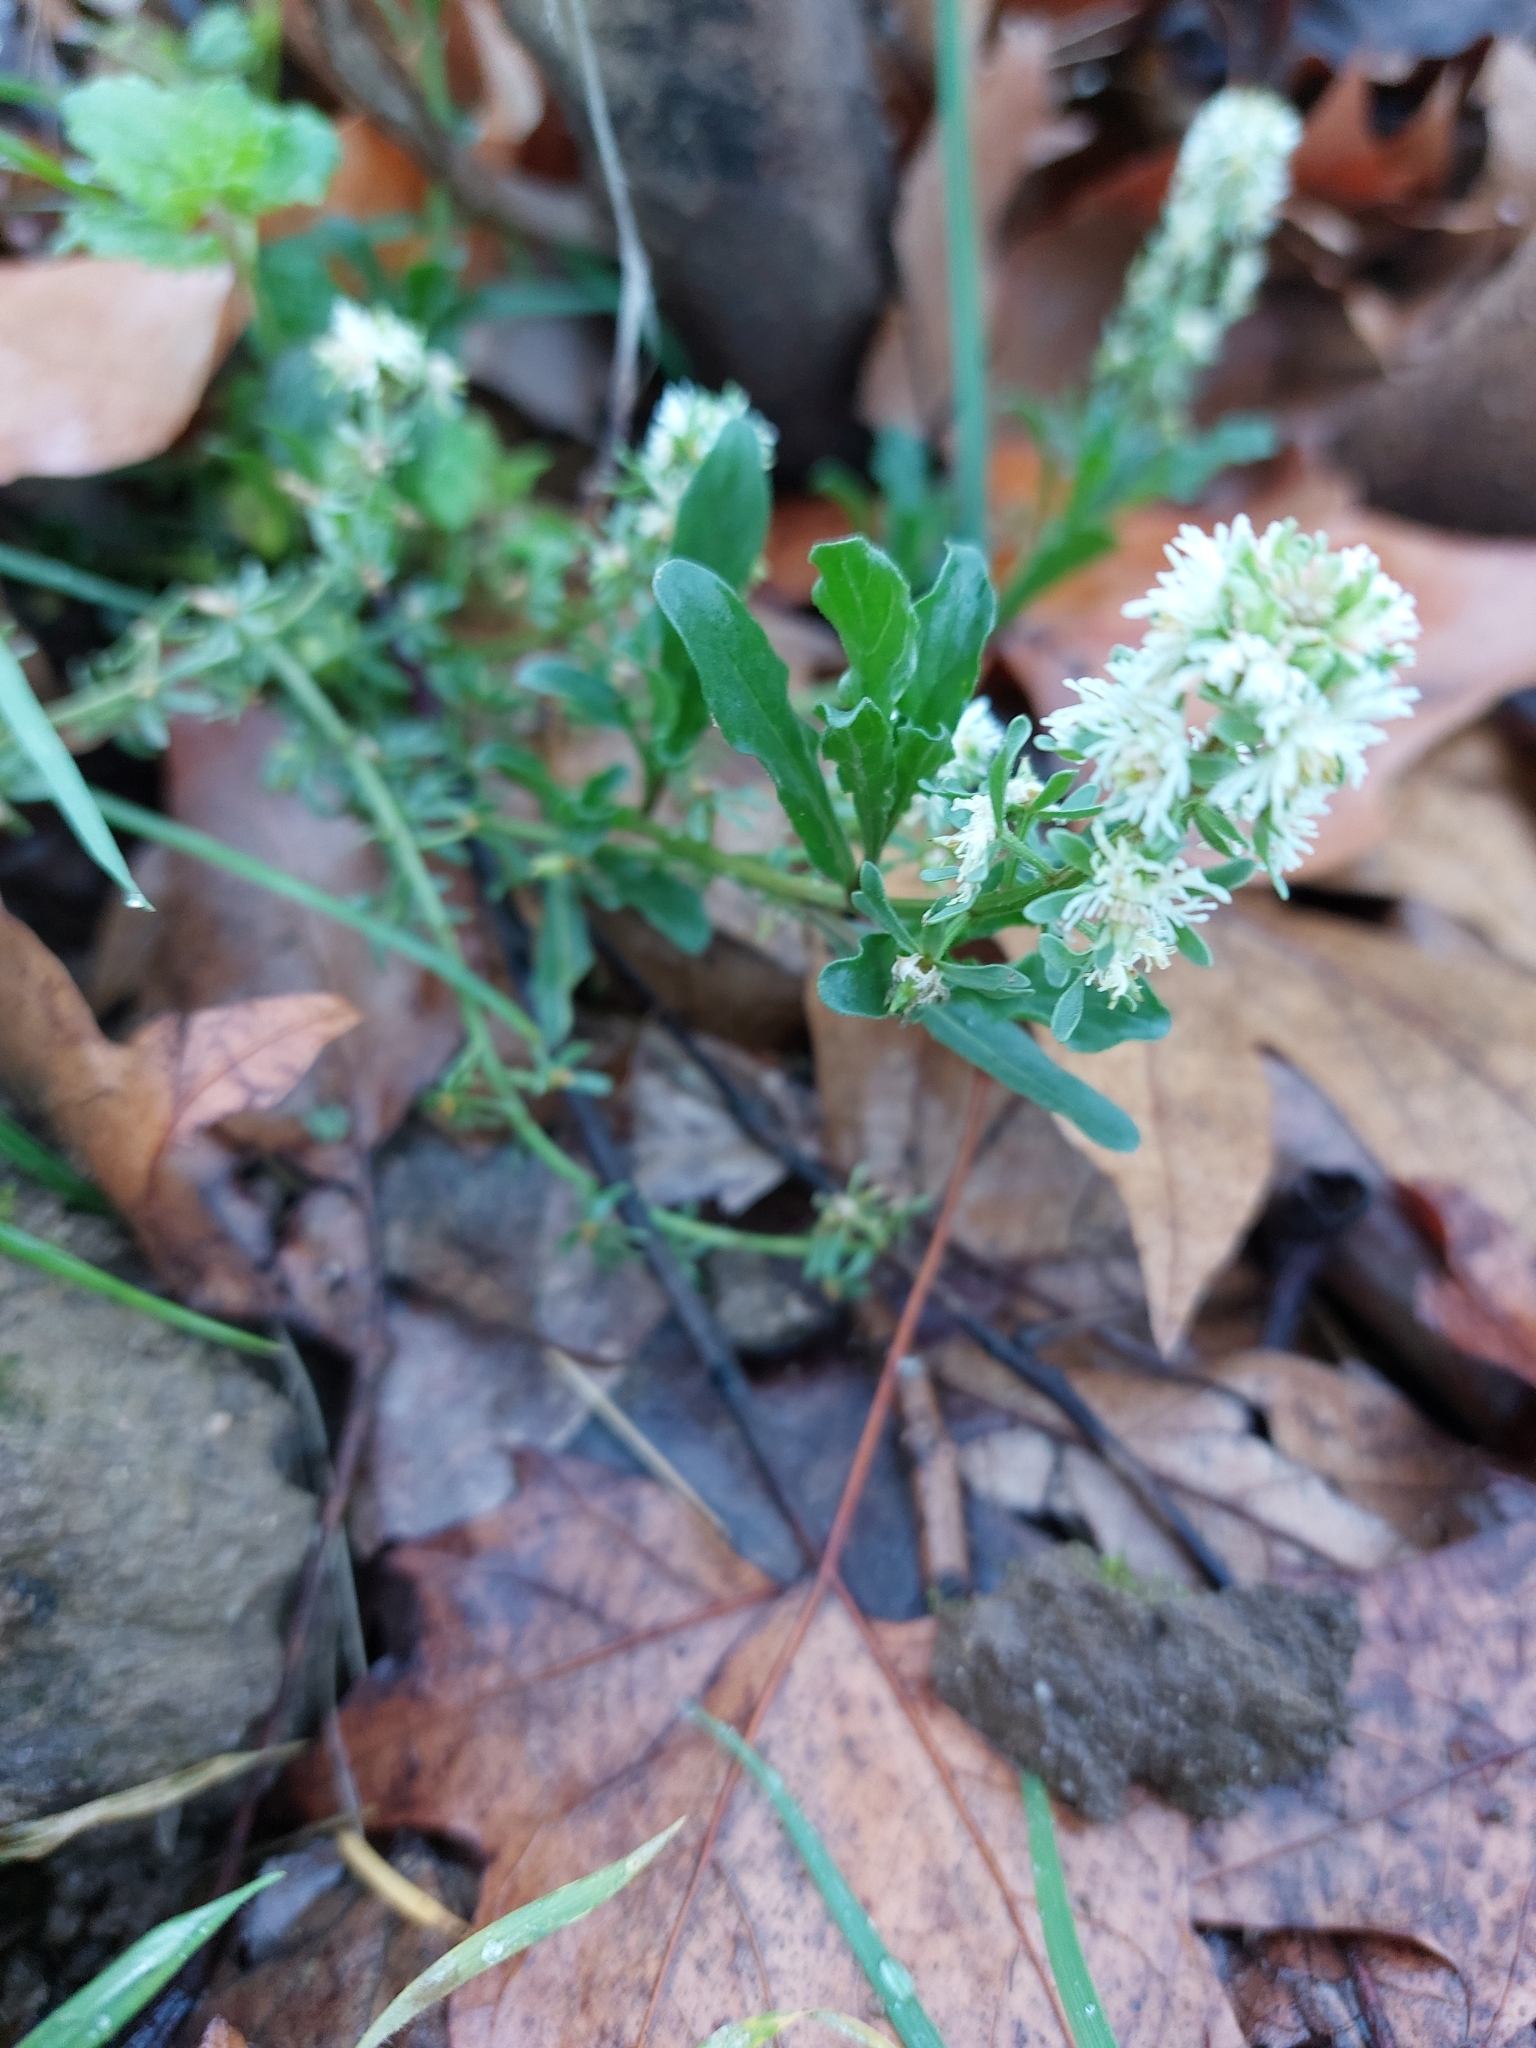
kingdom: Plantae
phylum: Tracheophyta
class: Magnoliopsida
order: Brassicales
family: Resedaceae
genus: Reseda
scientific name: Reseda phyteuma
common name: Corn mignonette
